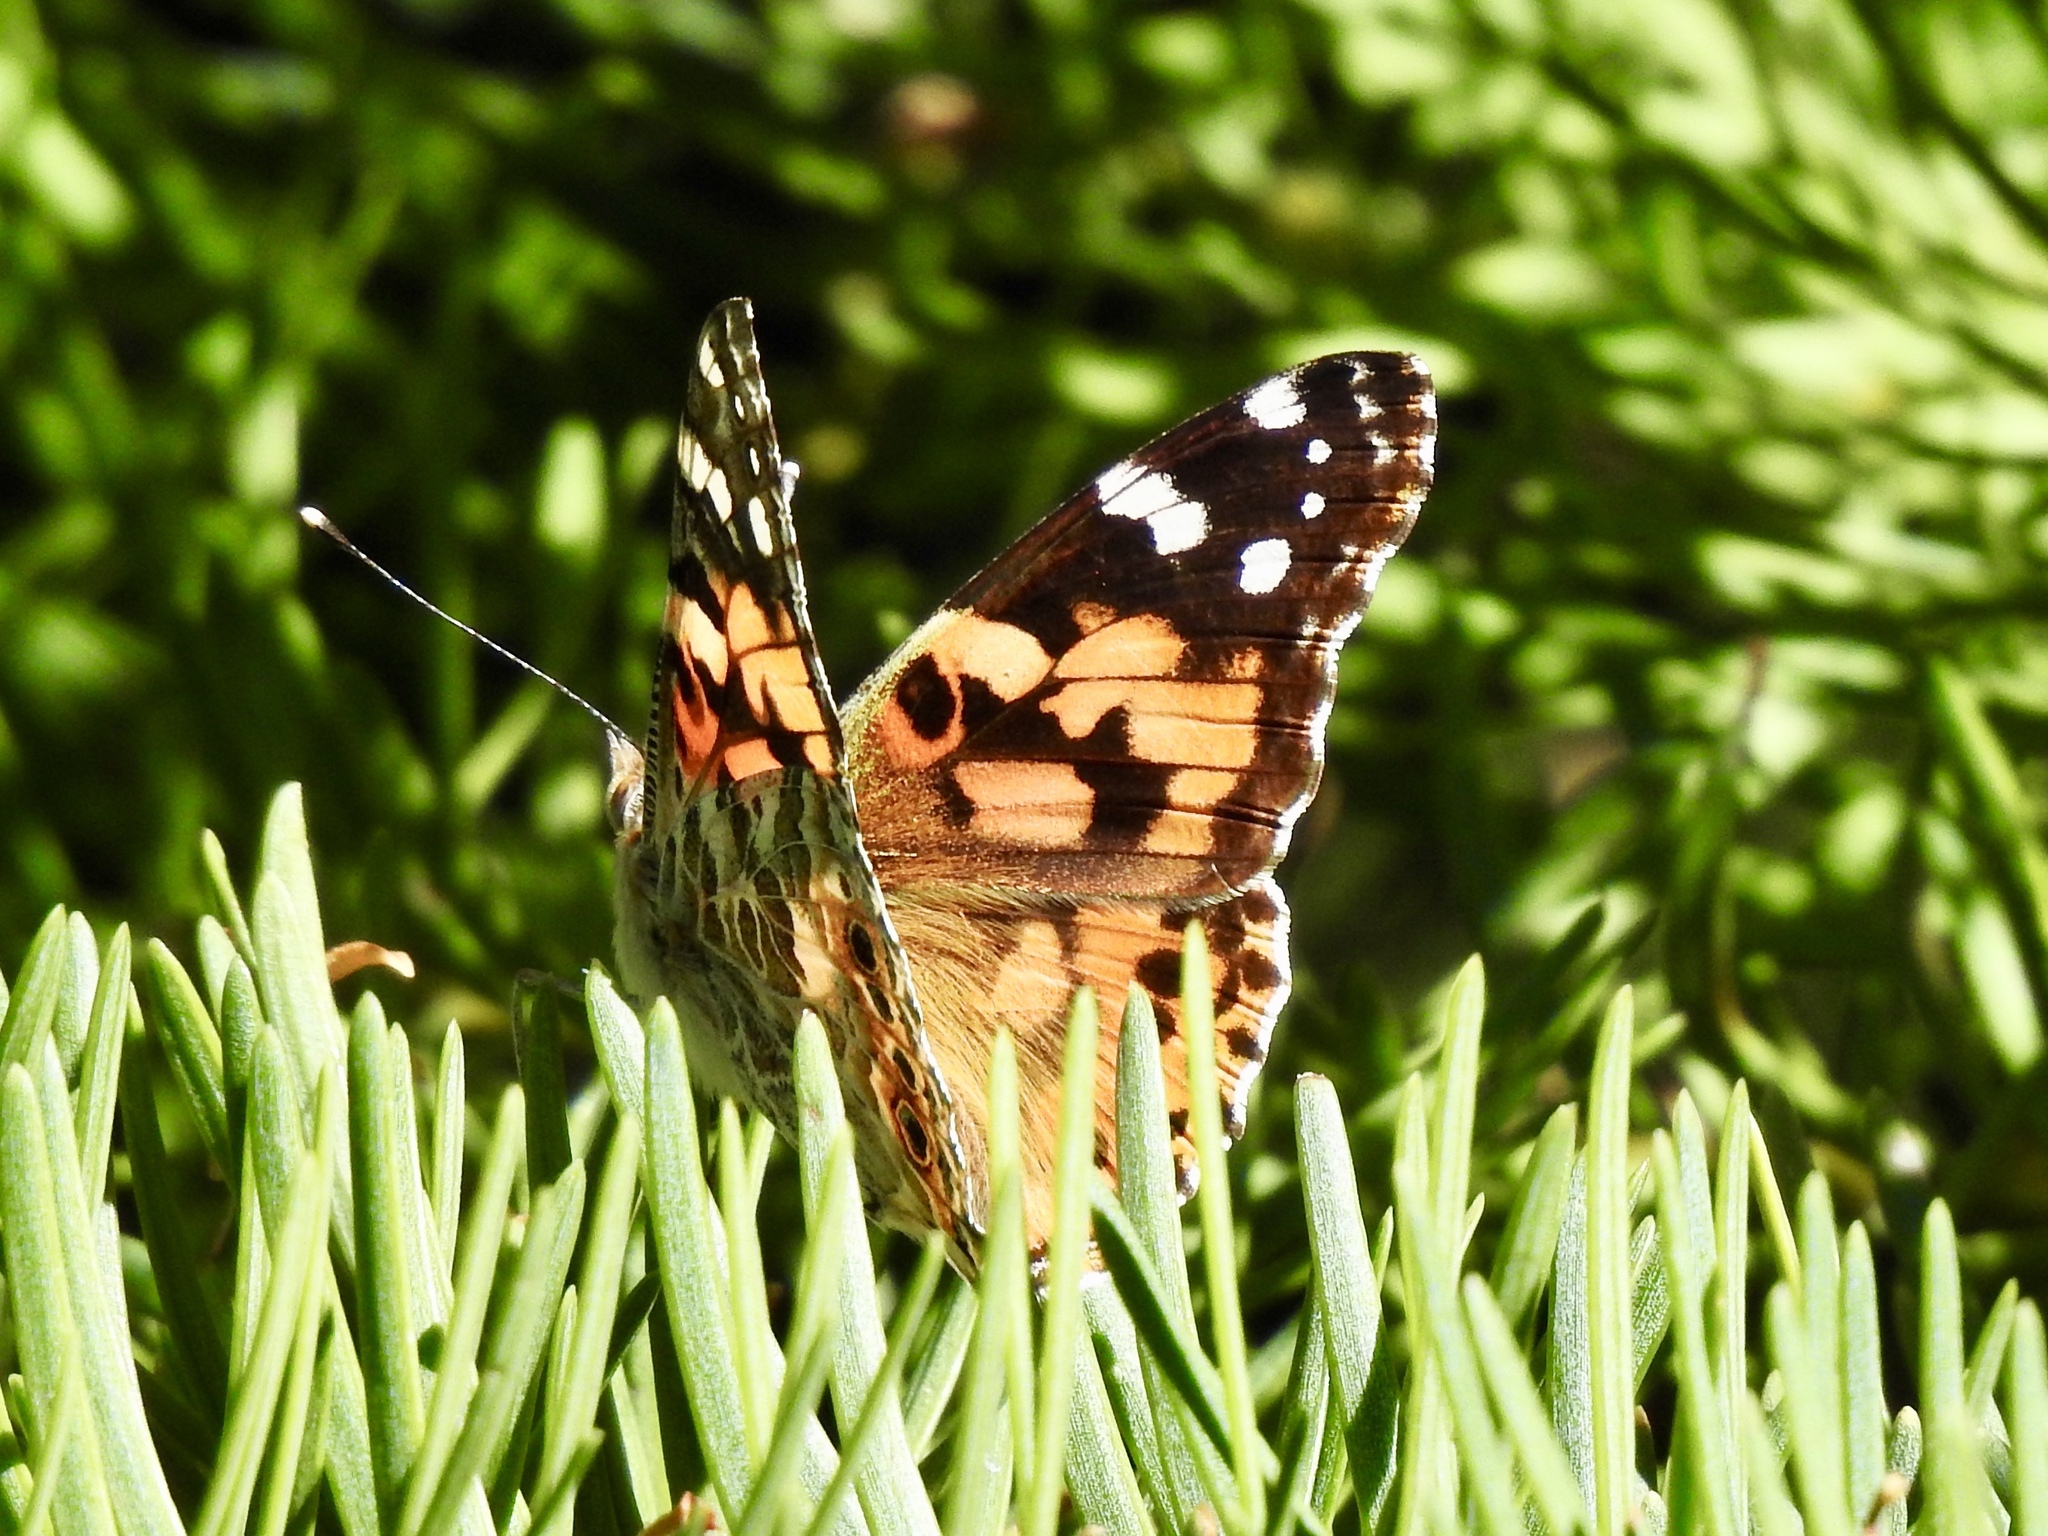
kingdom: Animalia
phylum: Arthropoda
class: Insecta
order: Lepidoptera
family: Nymphalidae
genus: Vanessa
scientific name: Vanessa cardui
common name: Painted lady
